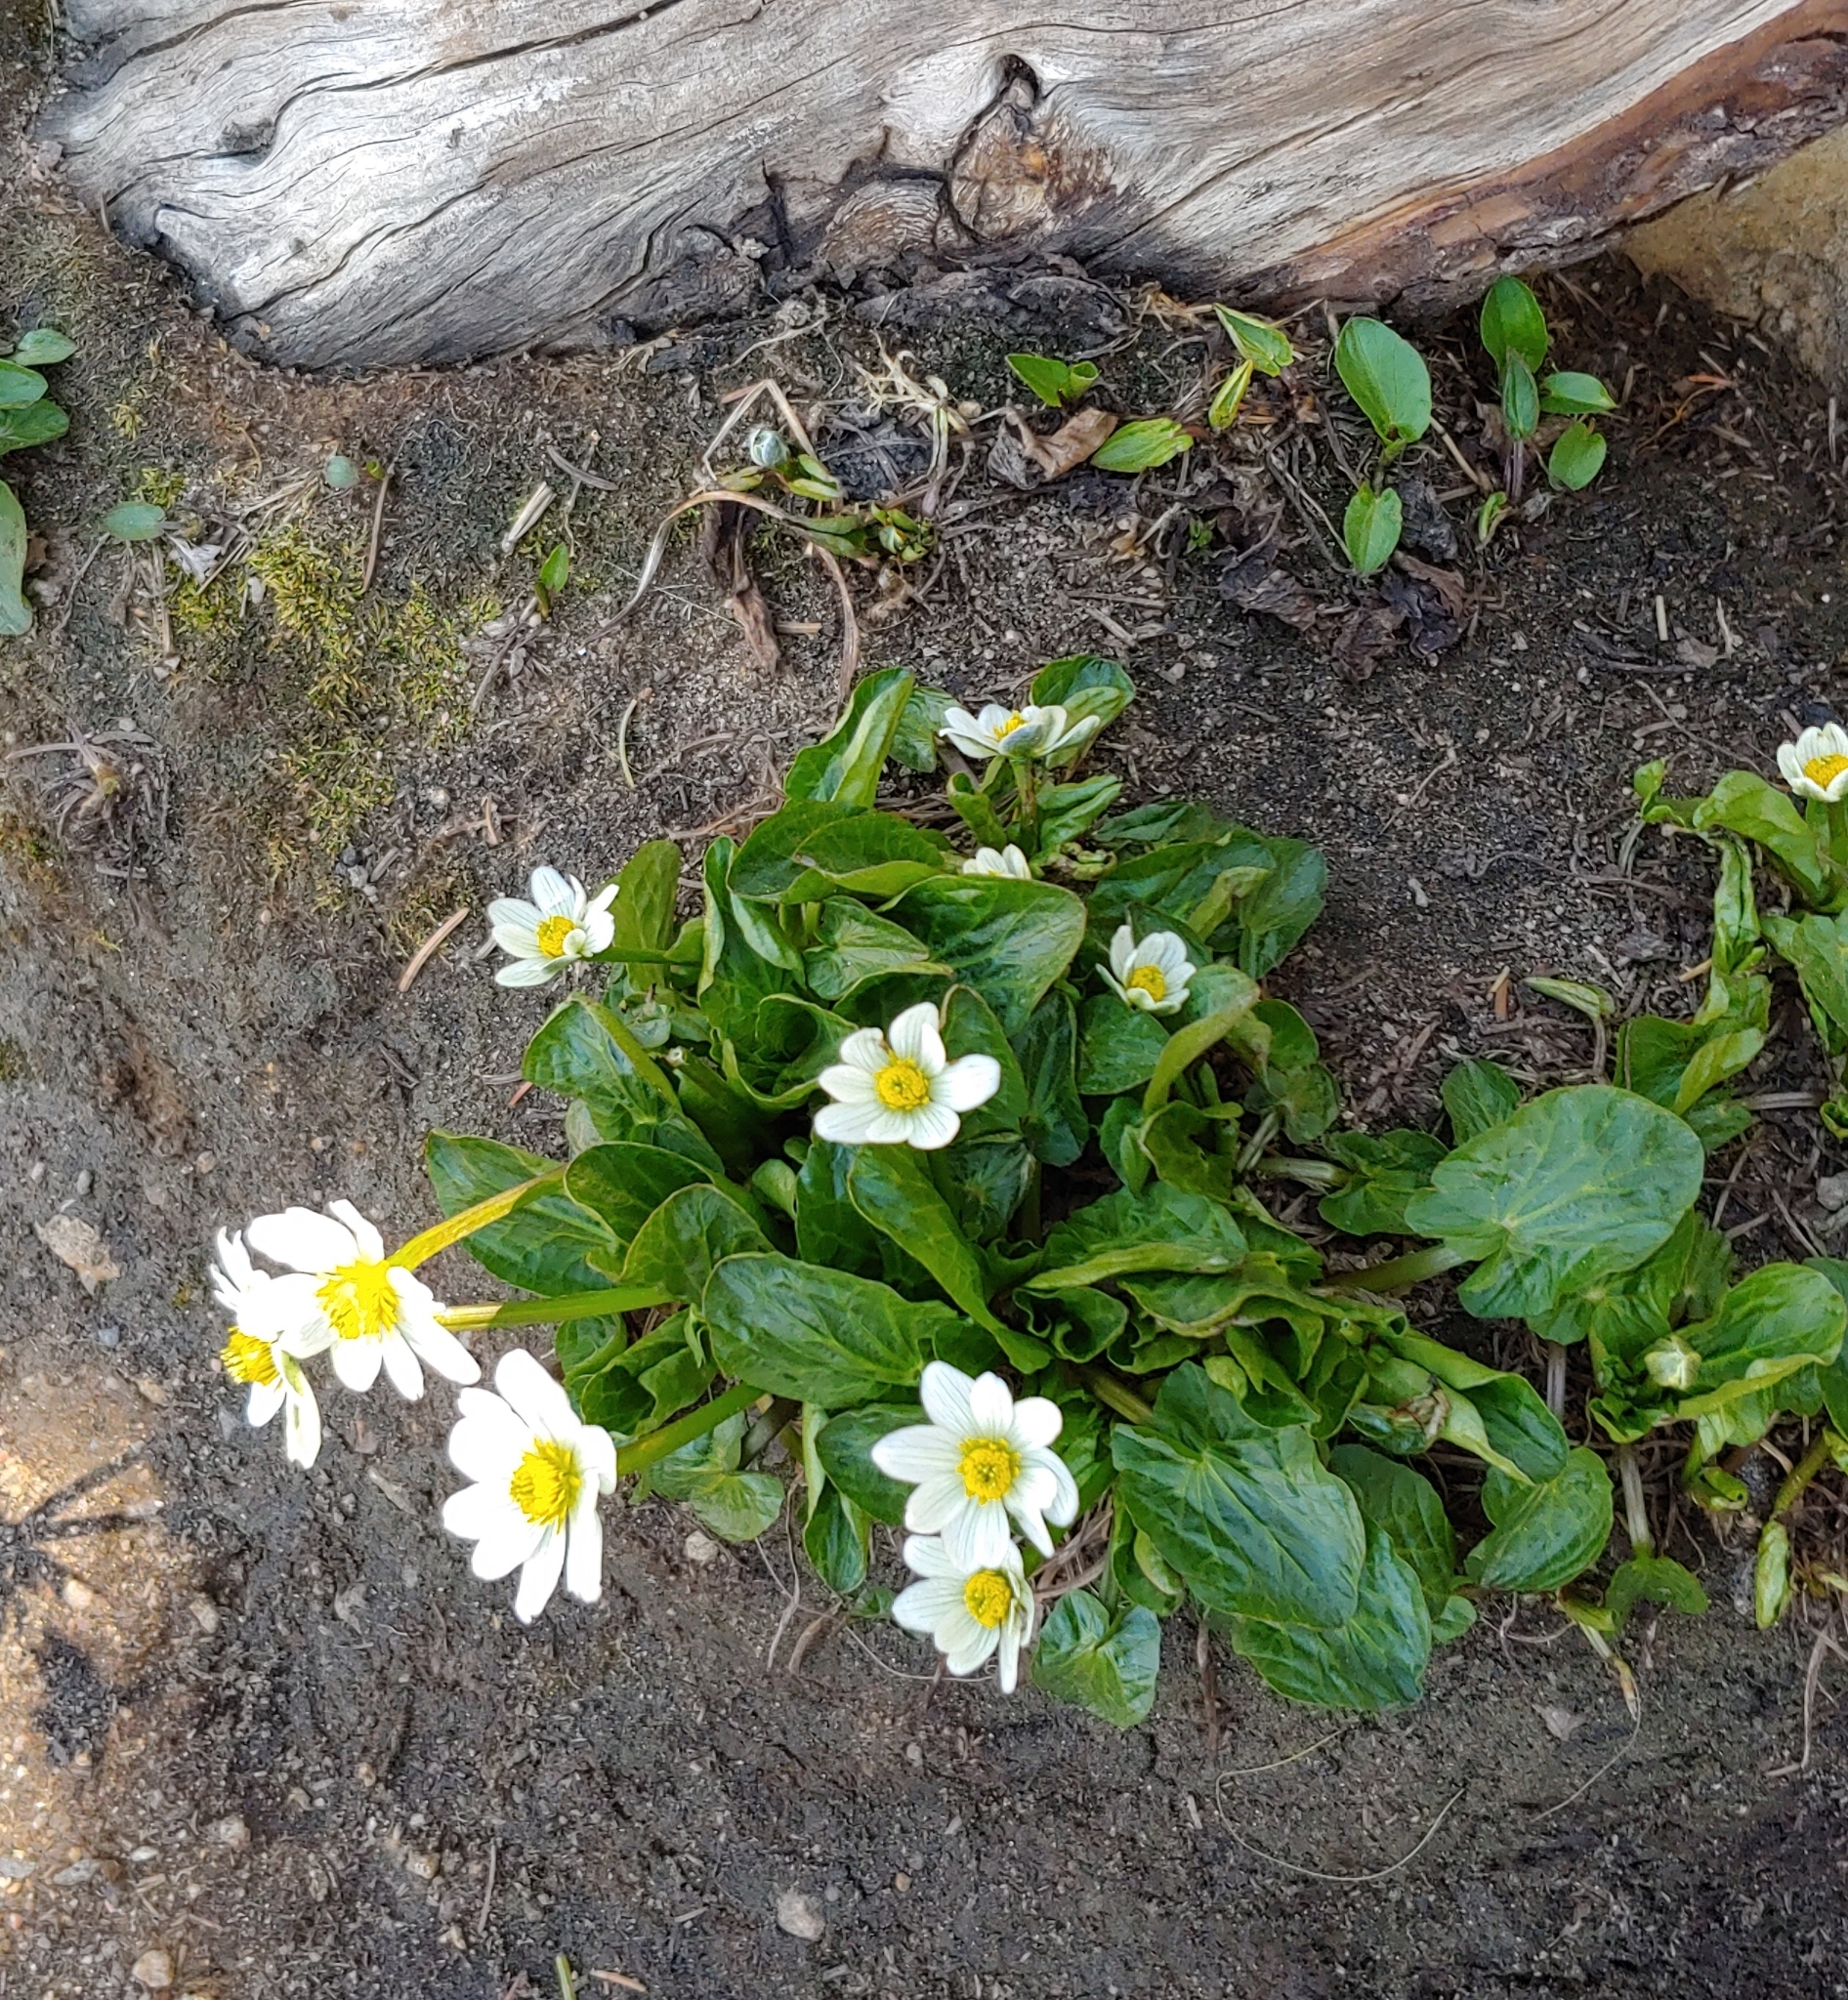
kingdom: Plantae
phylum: Tracheophyta
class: Magnoliopsida
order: Ranunculales
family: Ranunculaceae
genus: Caltha
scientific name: Caltha leptosepala
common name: Elkslip
